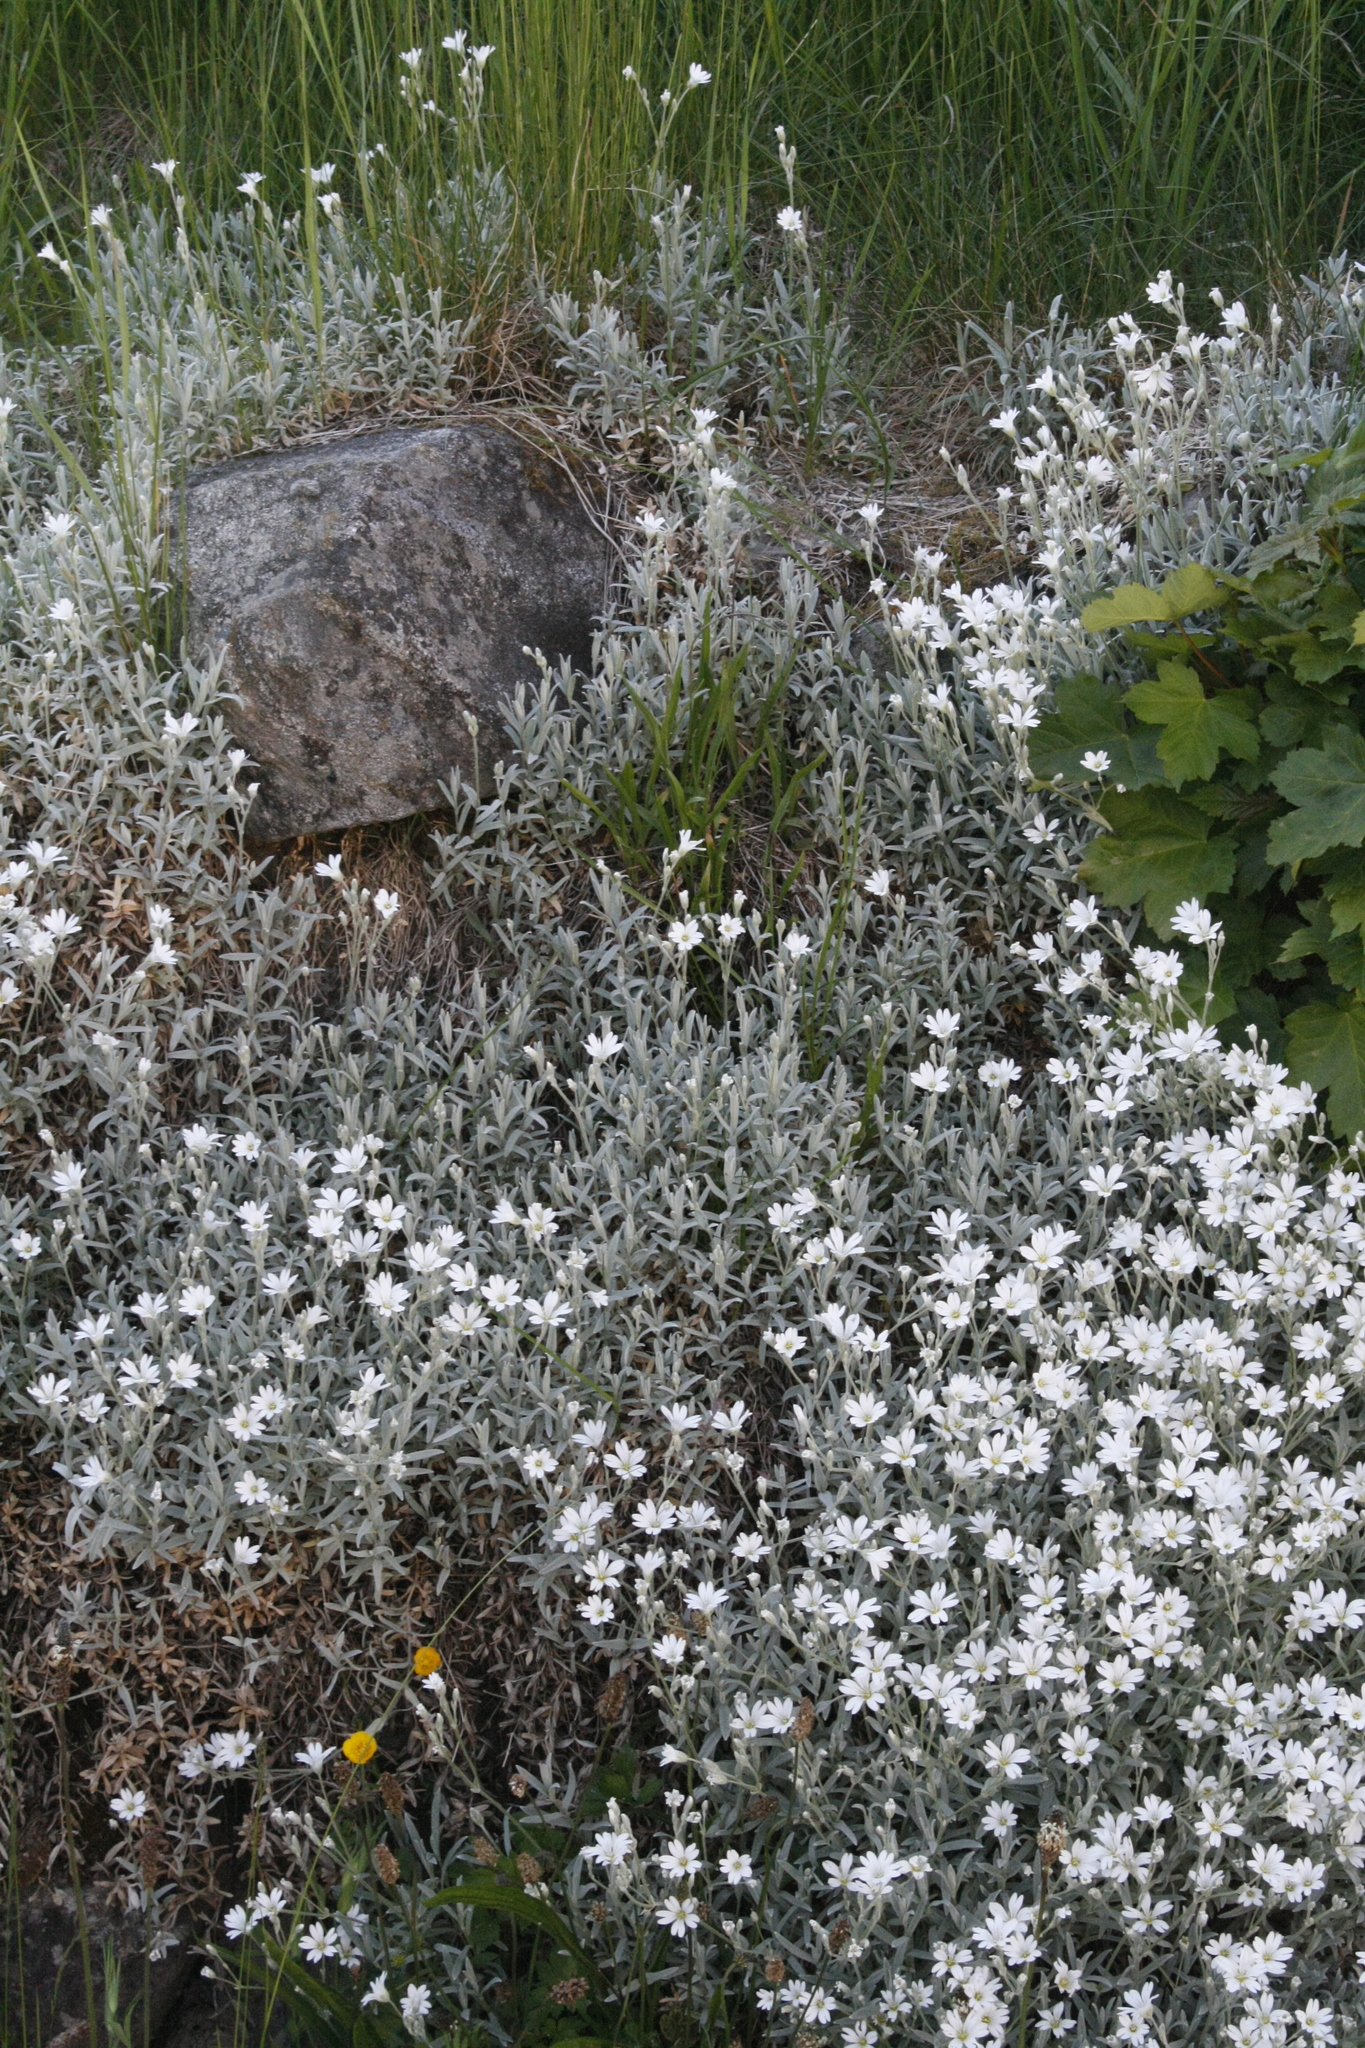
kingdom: Plantae
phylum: Tracheophyta
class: Magnoliopsida
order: Caryophyllales
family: Caryophyllaceae
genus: Cerastium
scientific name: Cerastium tomentosum
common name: Snow-in-summer
